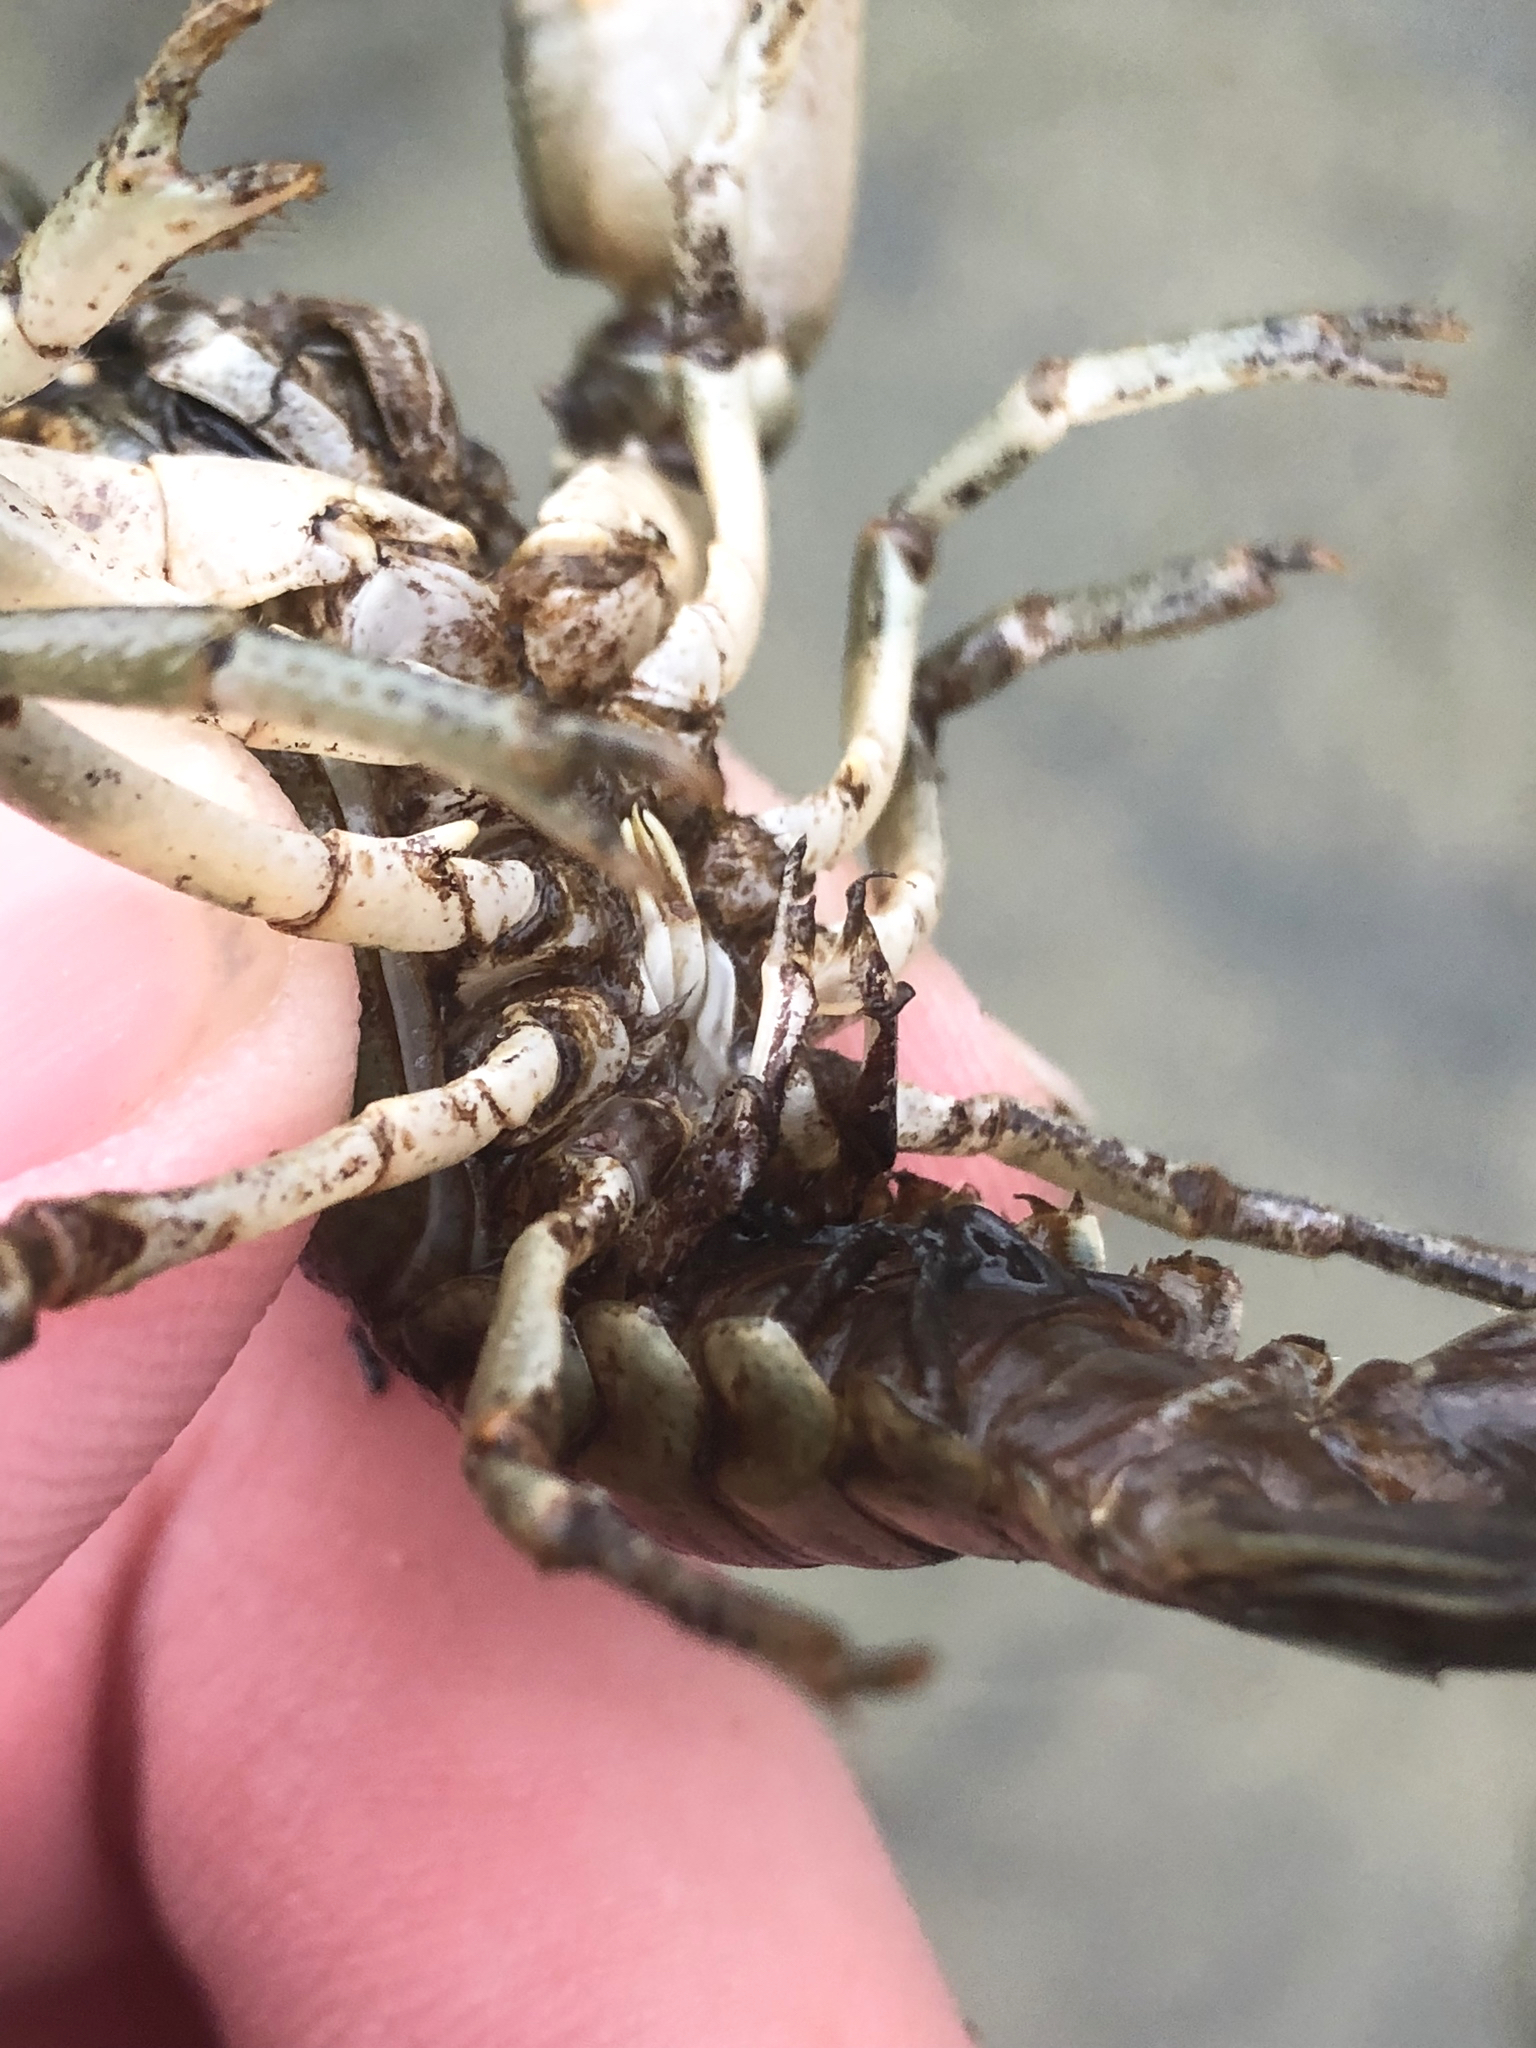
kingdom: Animalia
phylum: Arthropoda
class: Malacostraca
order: Decapoda
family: Cambaridae
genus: Faxonius
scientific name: Faxonius propinquus
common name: Northern clearwater crayfish
